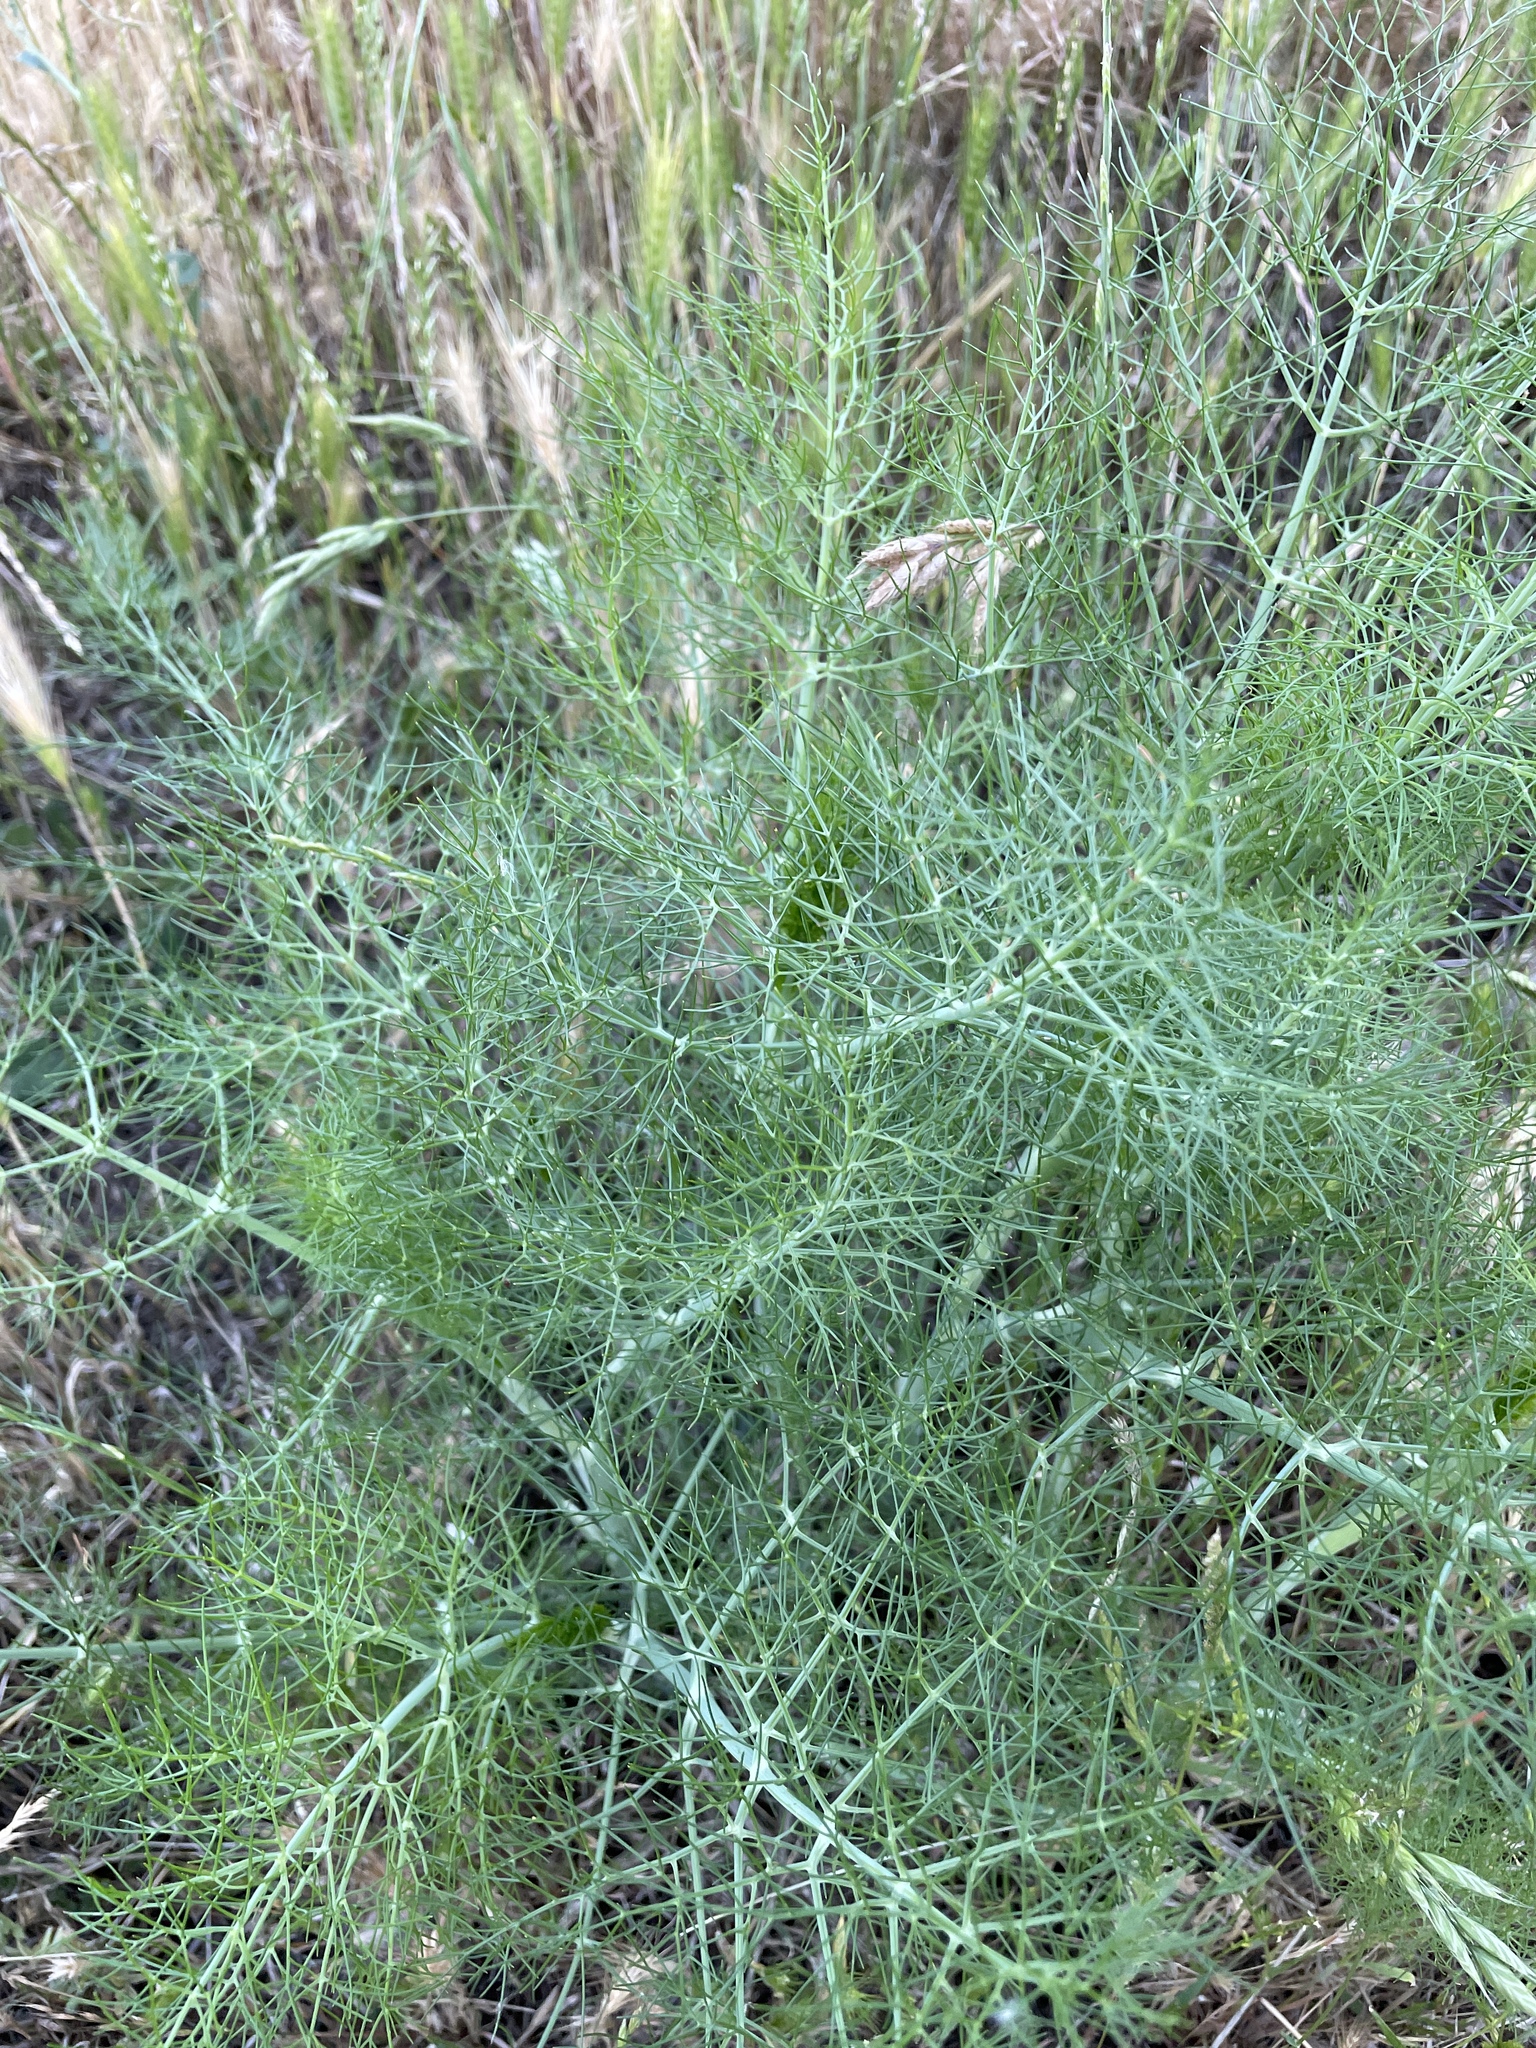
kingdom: Plantae
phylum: Tracheophyta
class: Magnoliopsida
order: Apiales
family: Apiaceae
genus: Foeniculum
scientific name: Foeniculum vulgare
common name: Fennel
